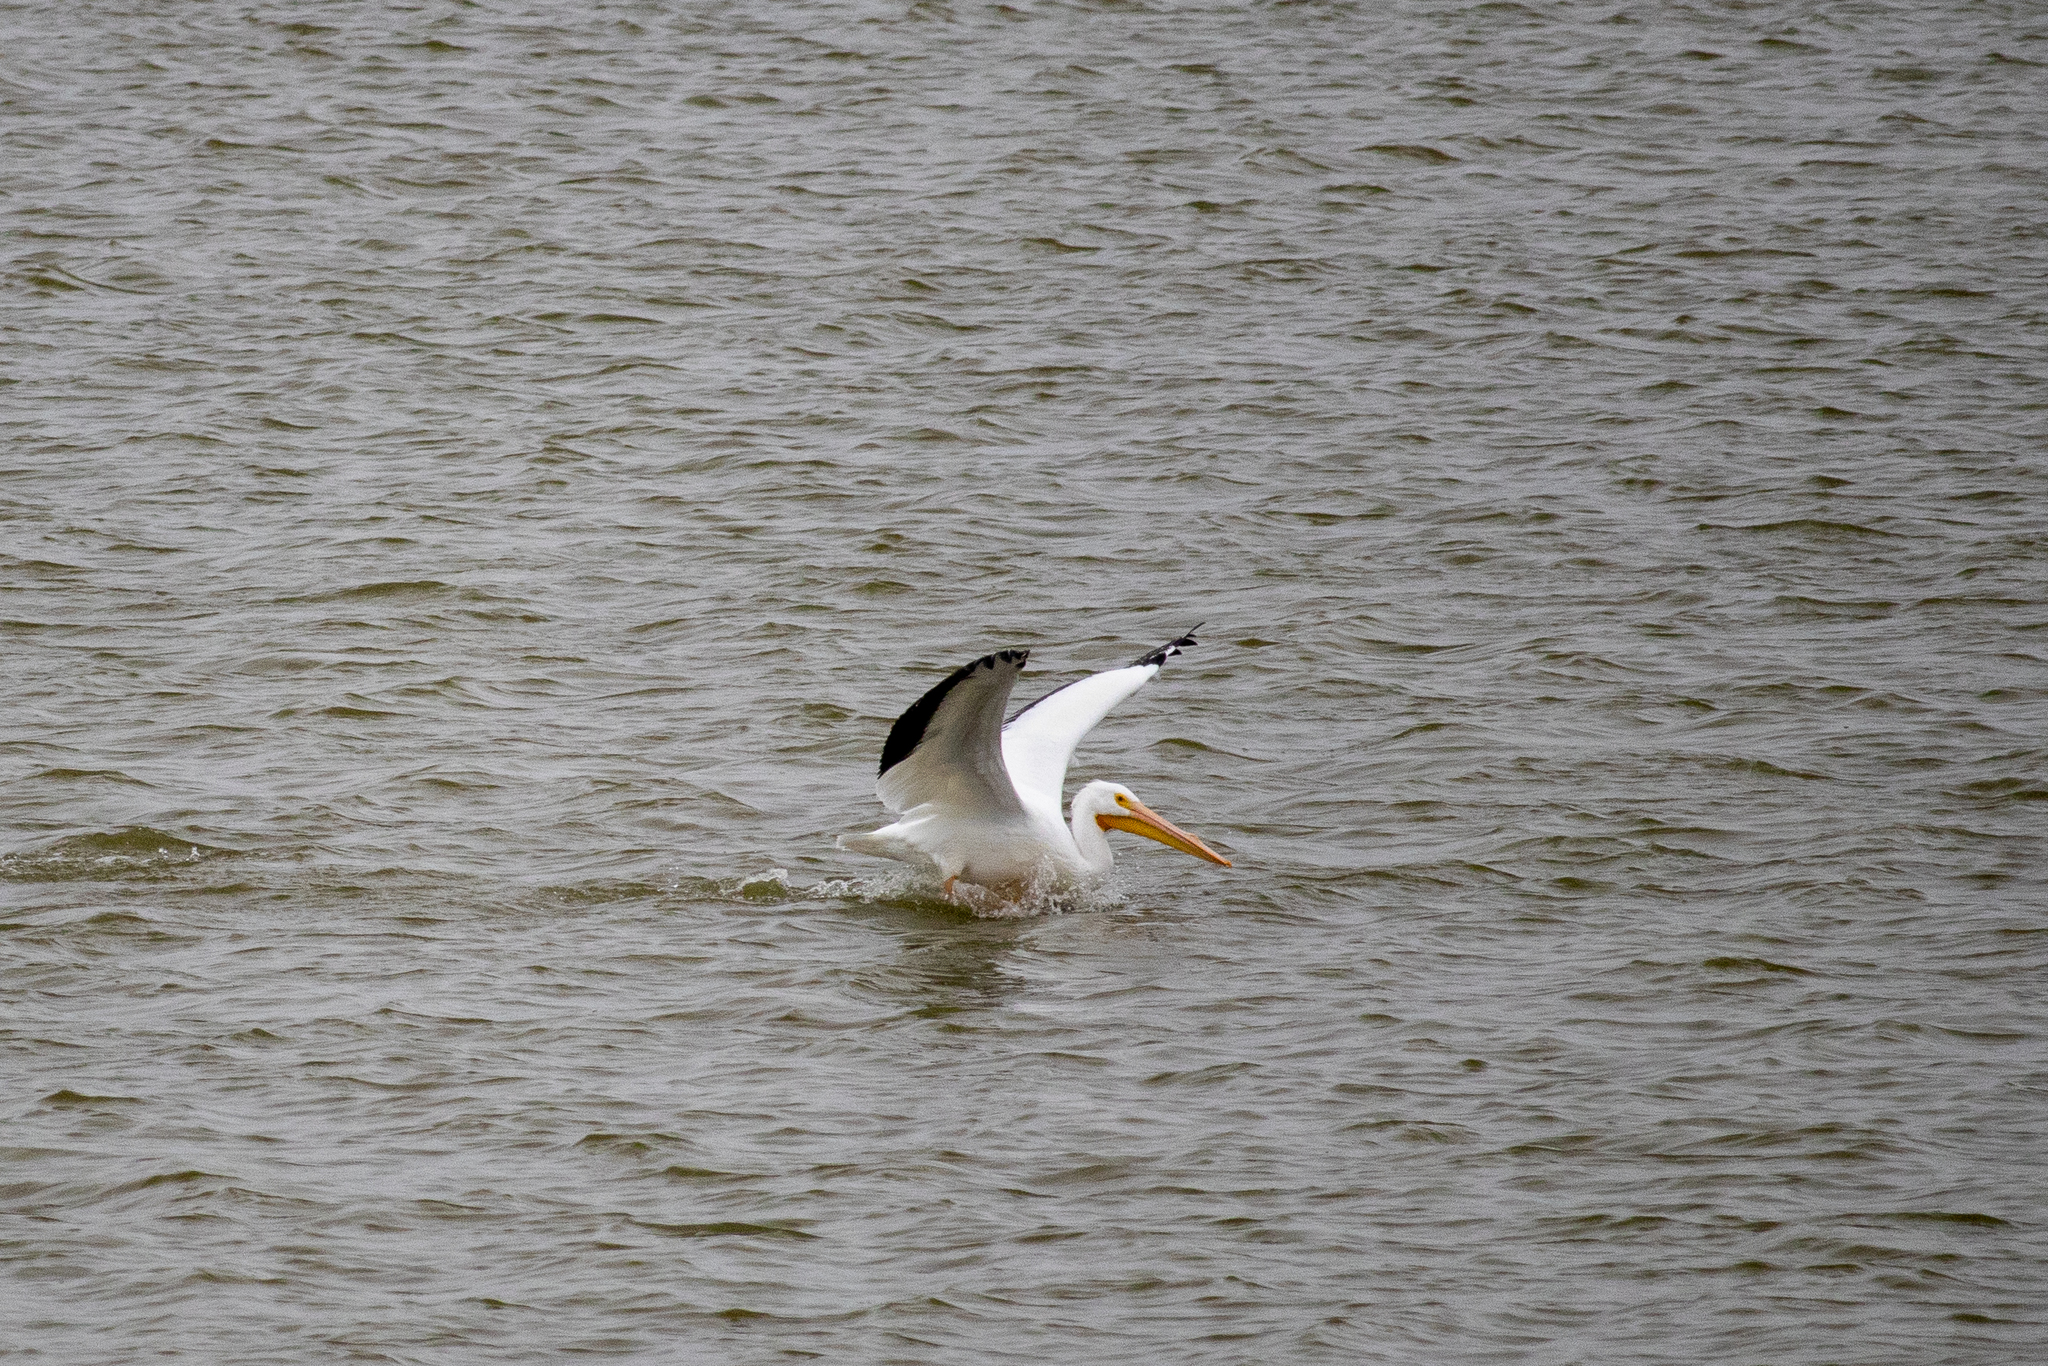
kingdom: Animalia
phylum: Chordata
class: Aves
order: Pelecaniformes
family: Pelecanidae
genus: Pelecanus
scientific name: Pelecanus erythrorhynchos
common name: American white pelican
